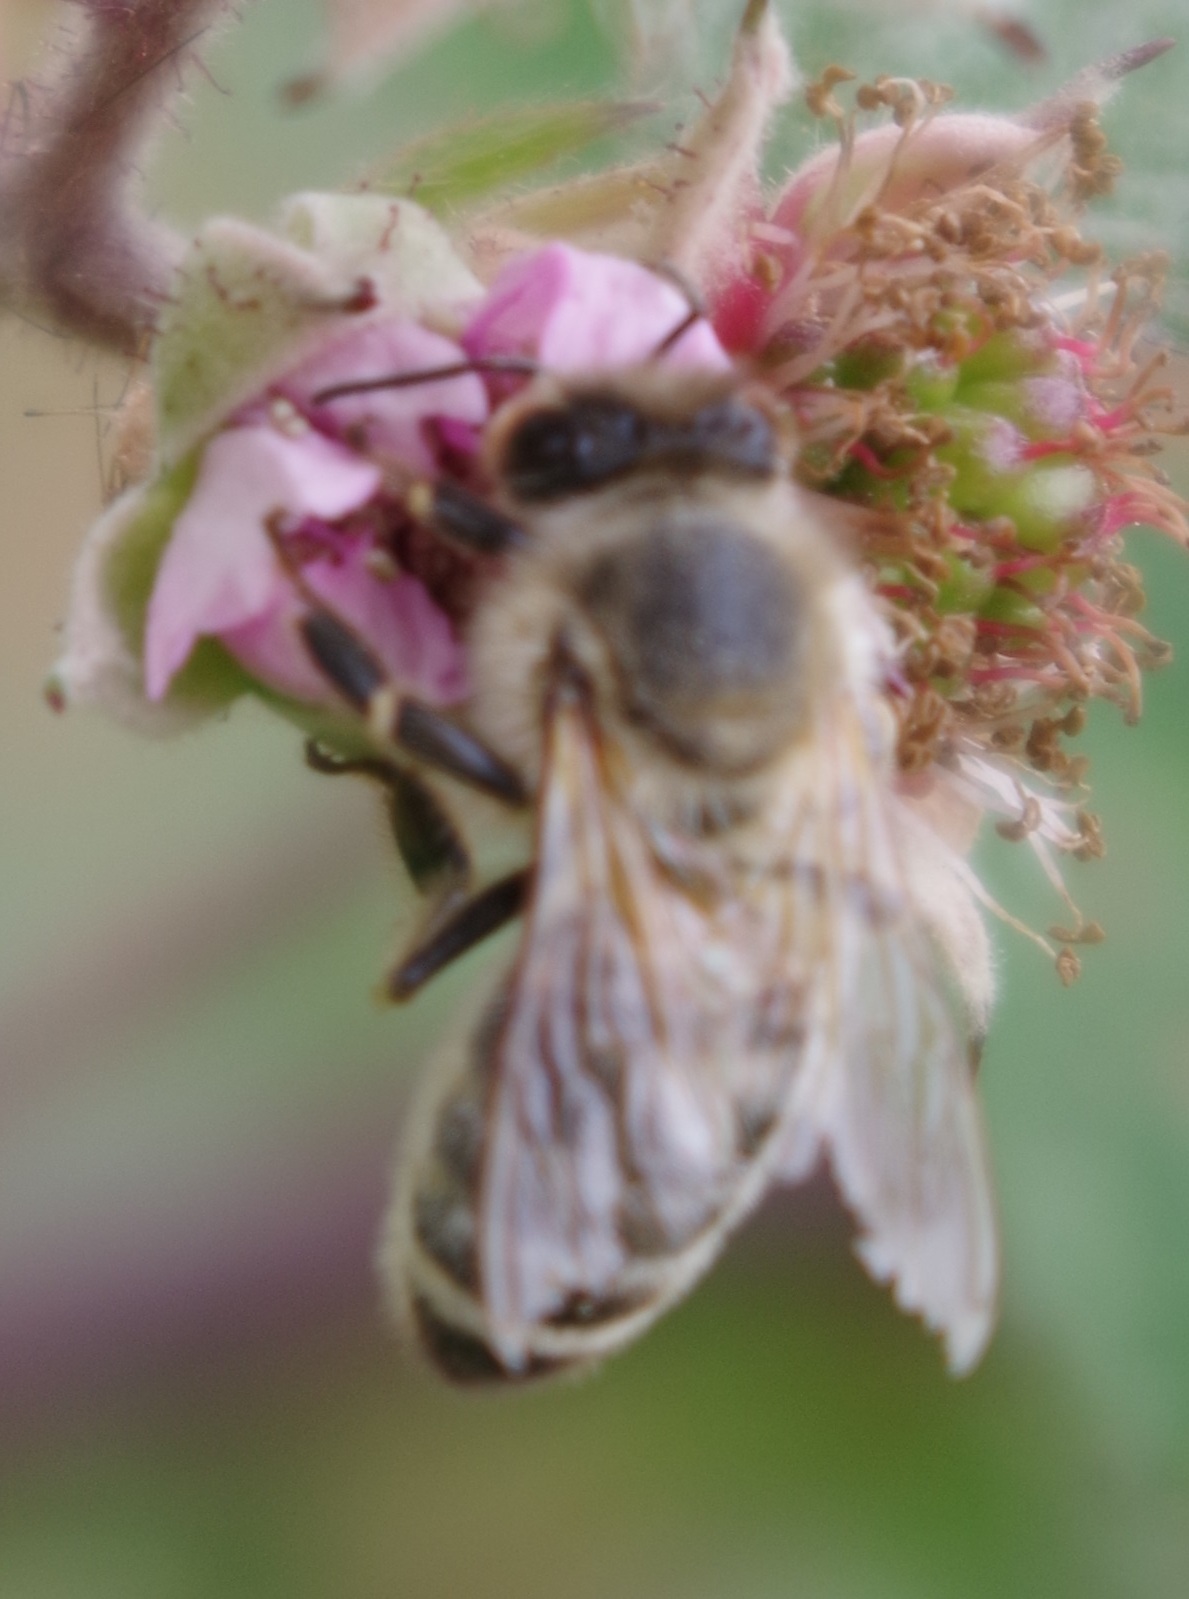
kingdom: Animalia
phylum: Arthropoda
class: Insecta
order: Hymenoptera
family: Apidae
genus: Apis
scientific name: Apis mellifera
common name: Honey bee
